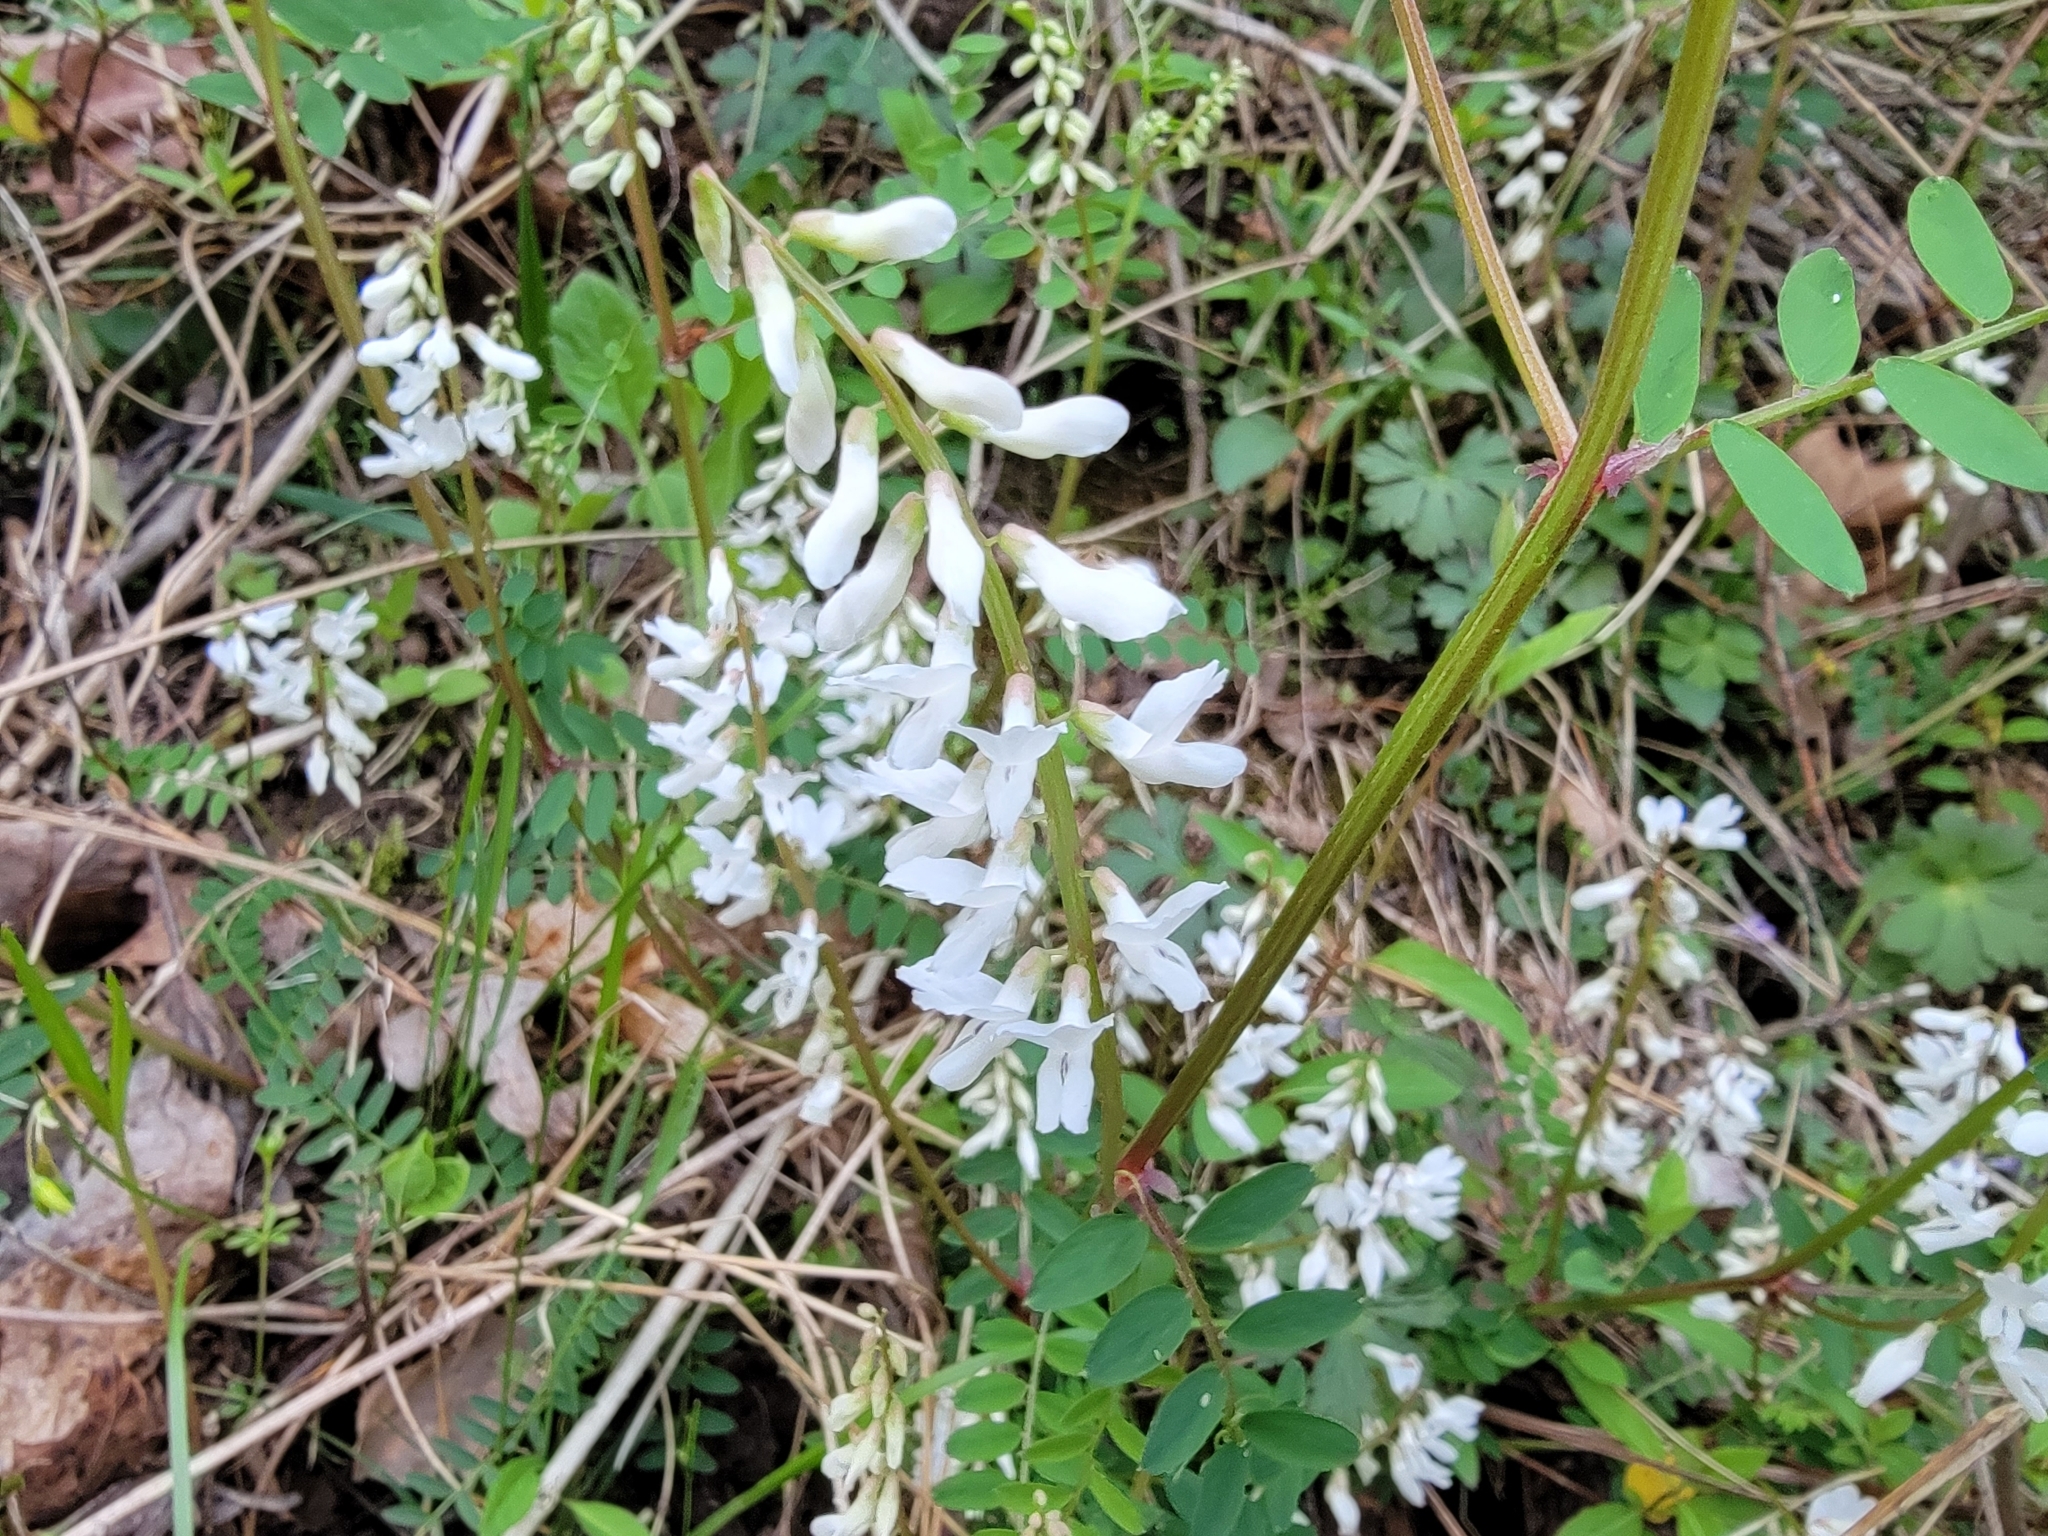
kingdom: Plantae
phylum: Tracheophyta
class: Magnoliopsida
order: Fabales
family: Fabaceae
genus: Vicia
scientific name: Vicia caroliniana
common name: Carolina vetch
